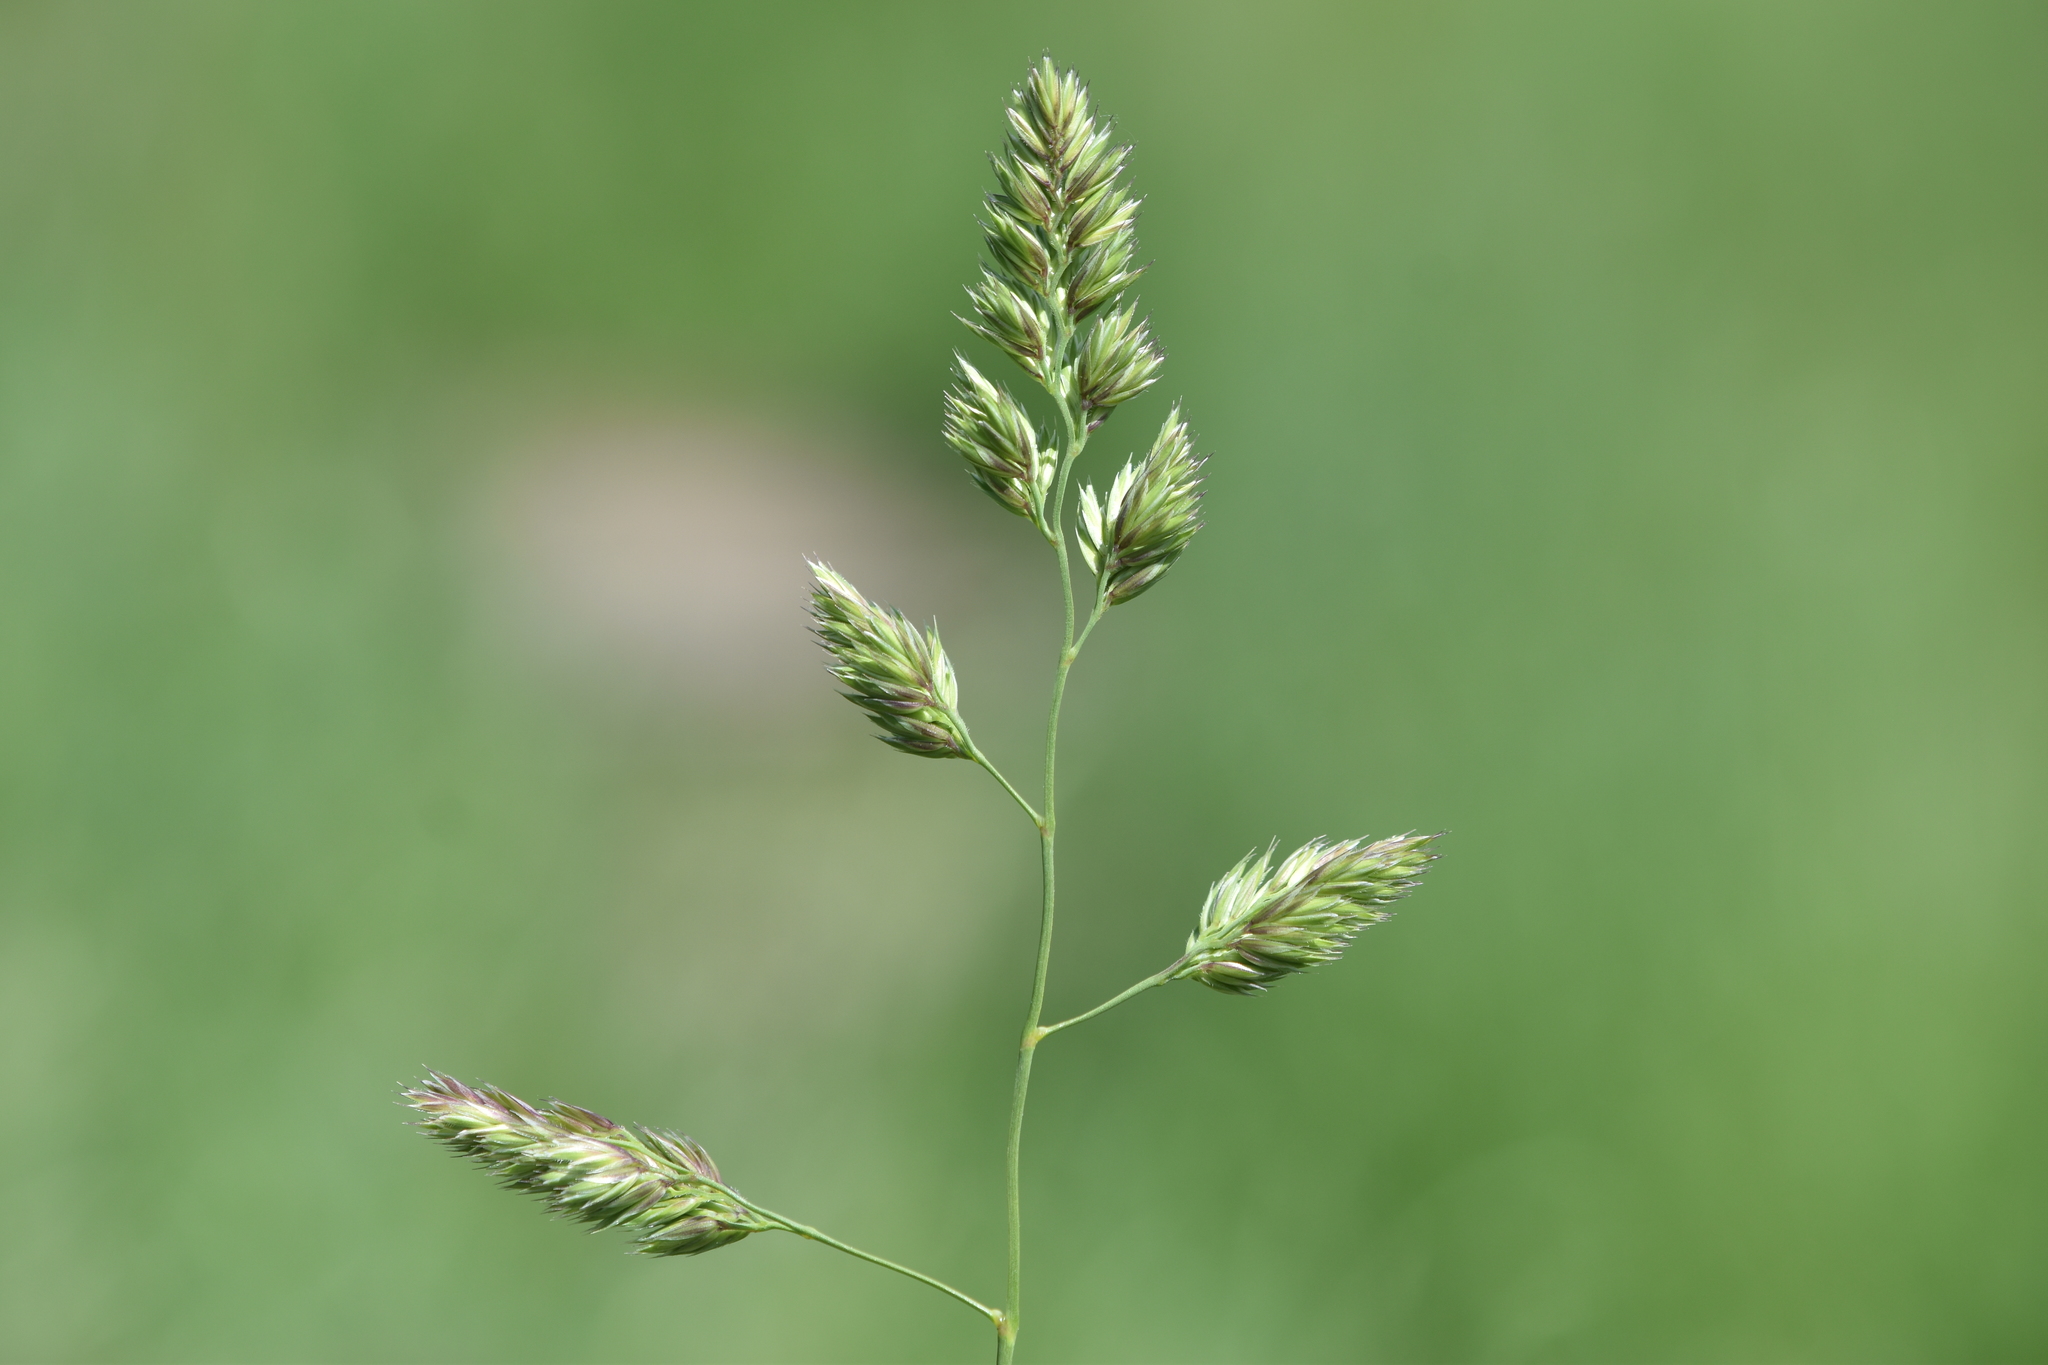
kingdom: Plantae
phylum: Tracheophyta
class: Liliopsida
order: Poales
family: Poaceae
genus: Dactylis
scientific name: Dactylis glomerata
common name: Orchardgrass
